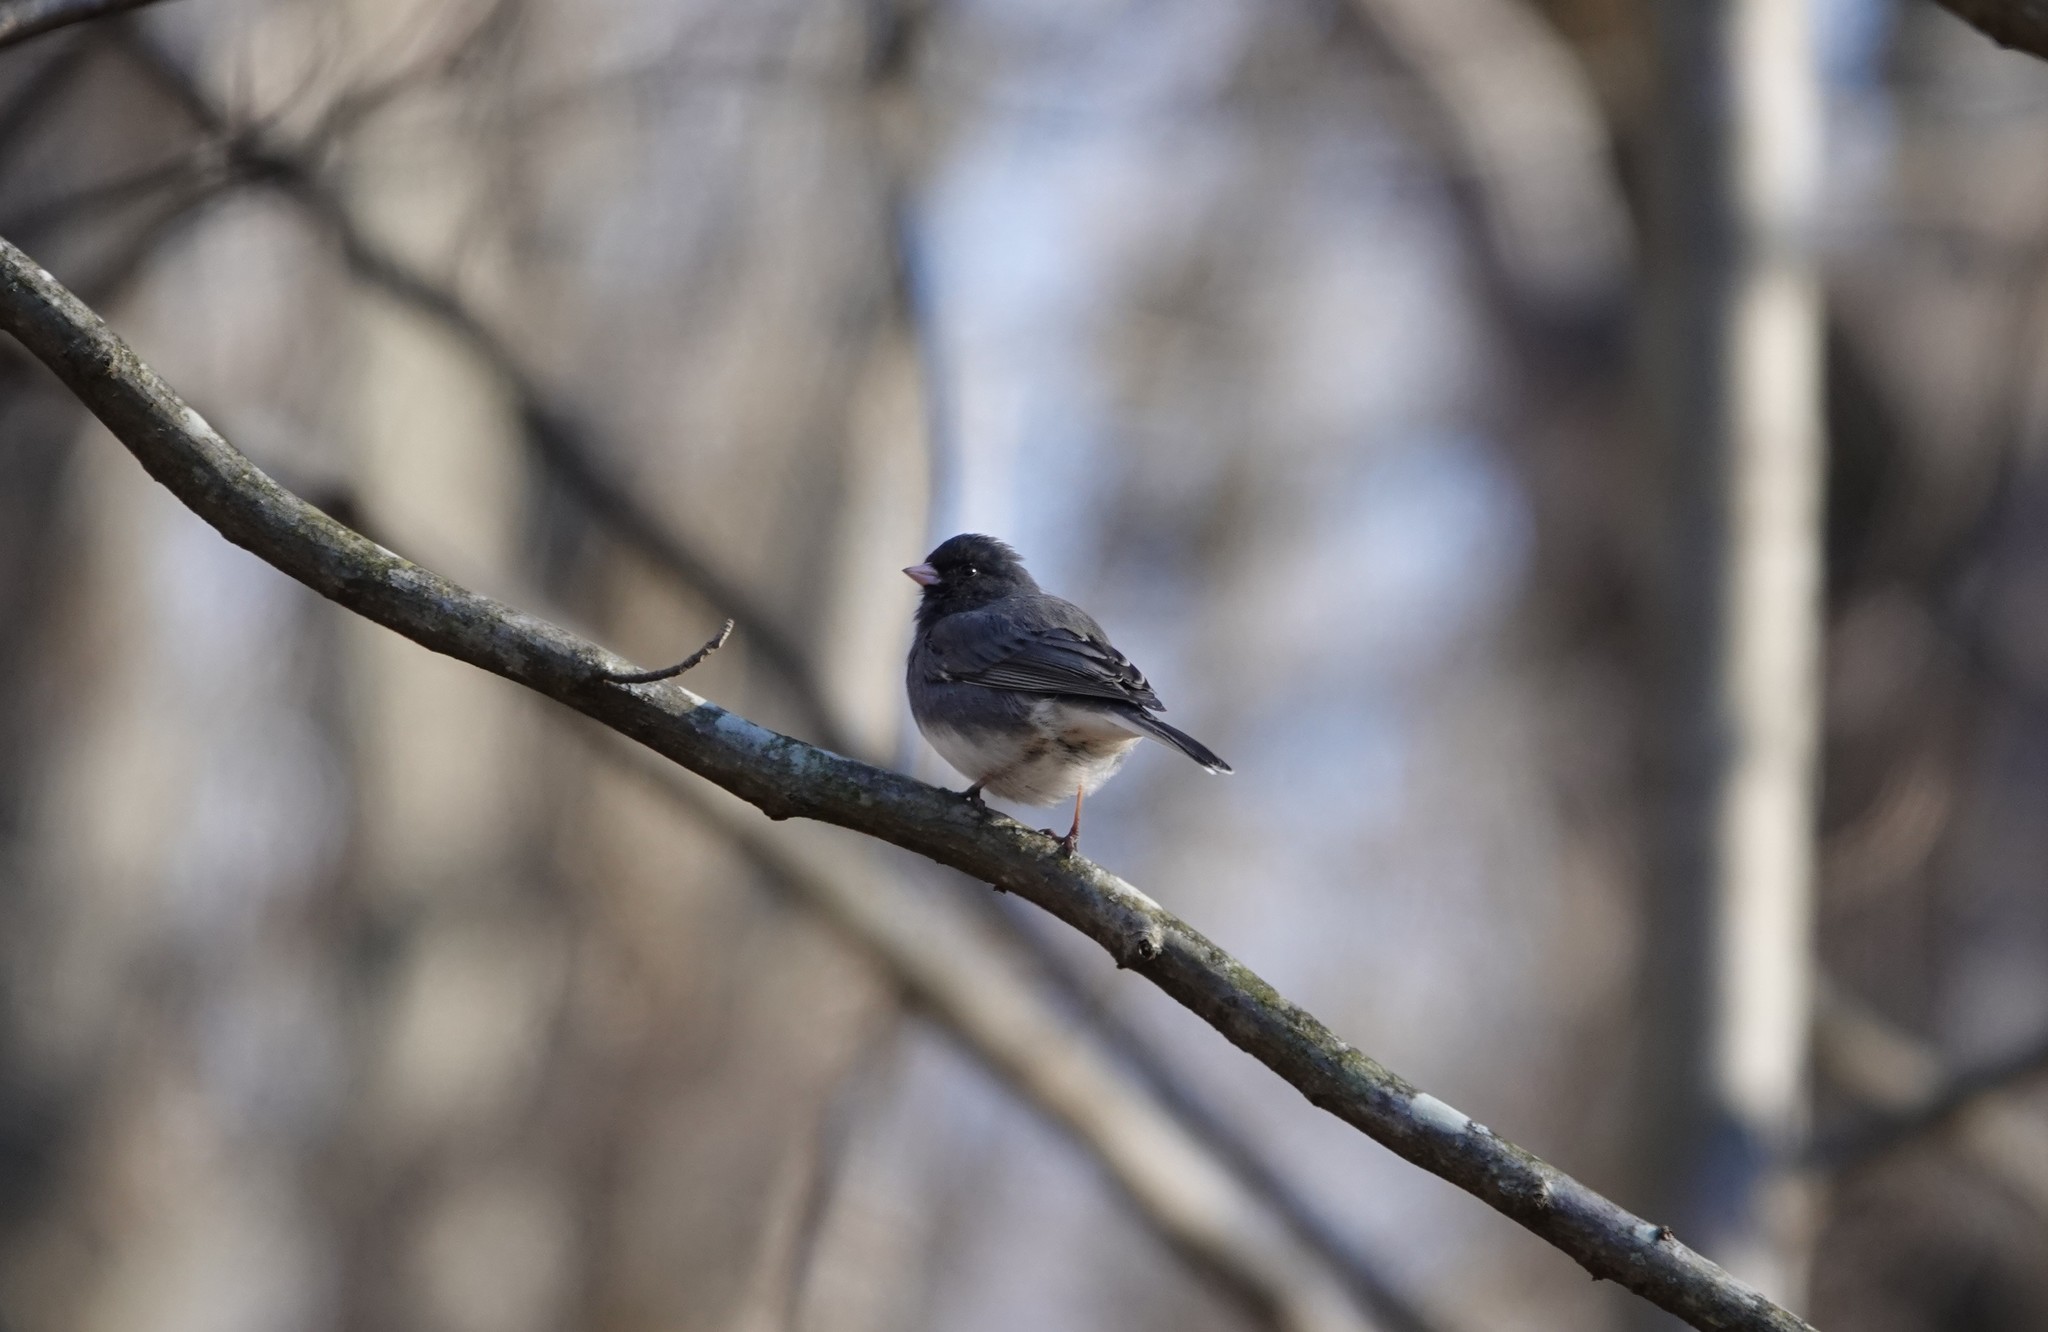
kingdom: Animalia
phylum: Chordata
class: Aves
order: Passeriformes
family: Passerellidae
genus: Junco
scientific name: Junco hyemalis
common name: Dark-eyed junco
